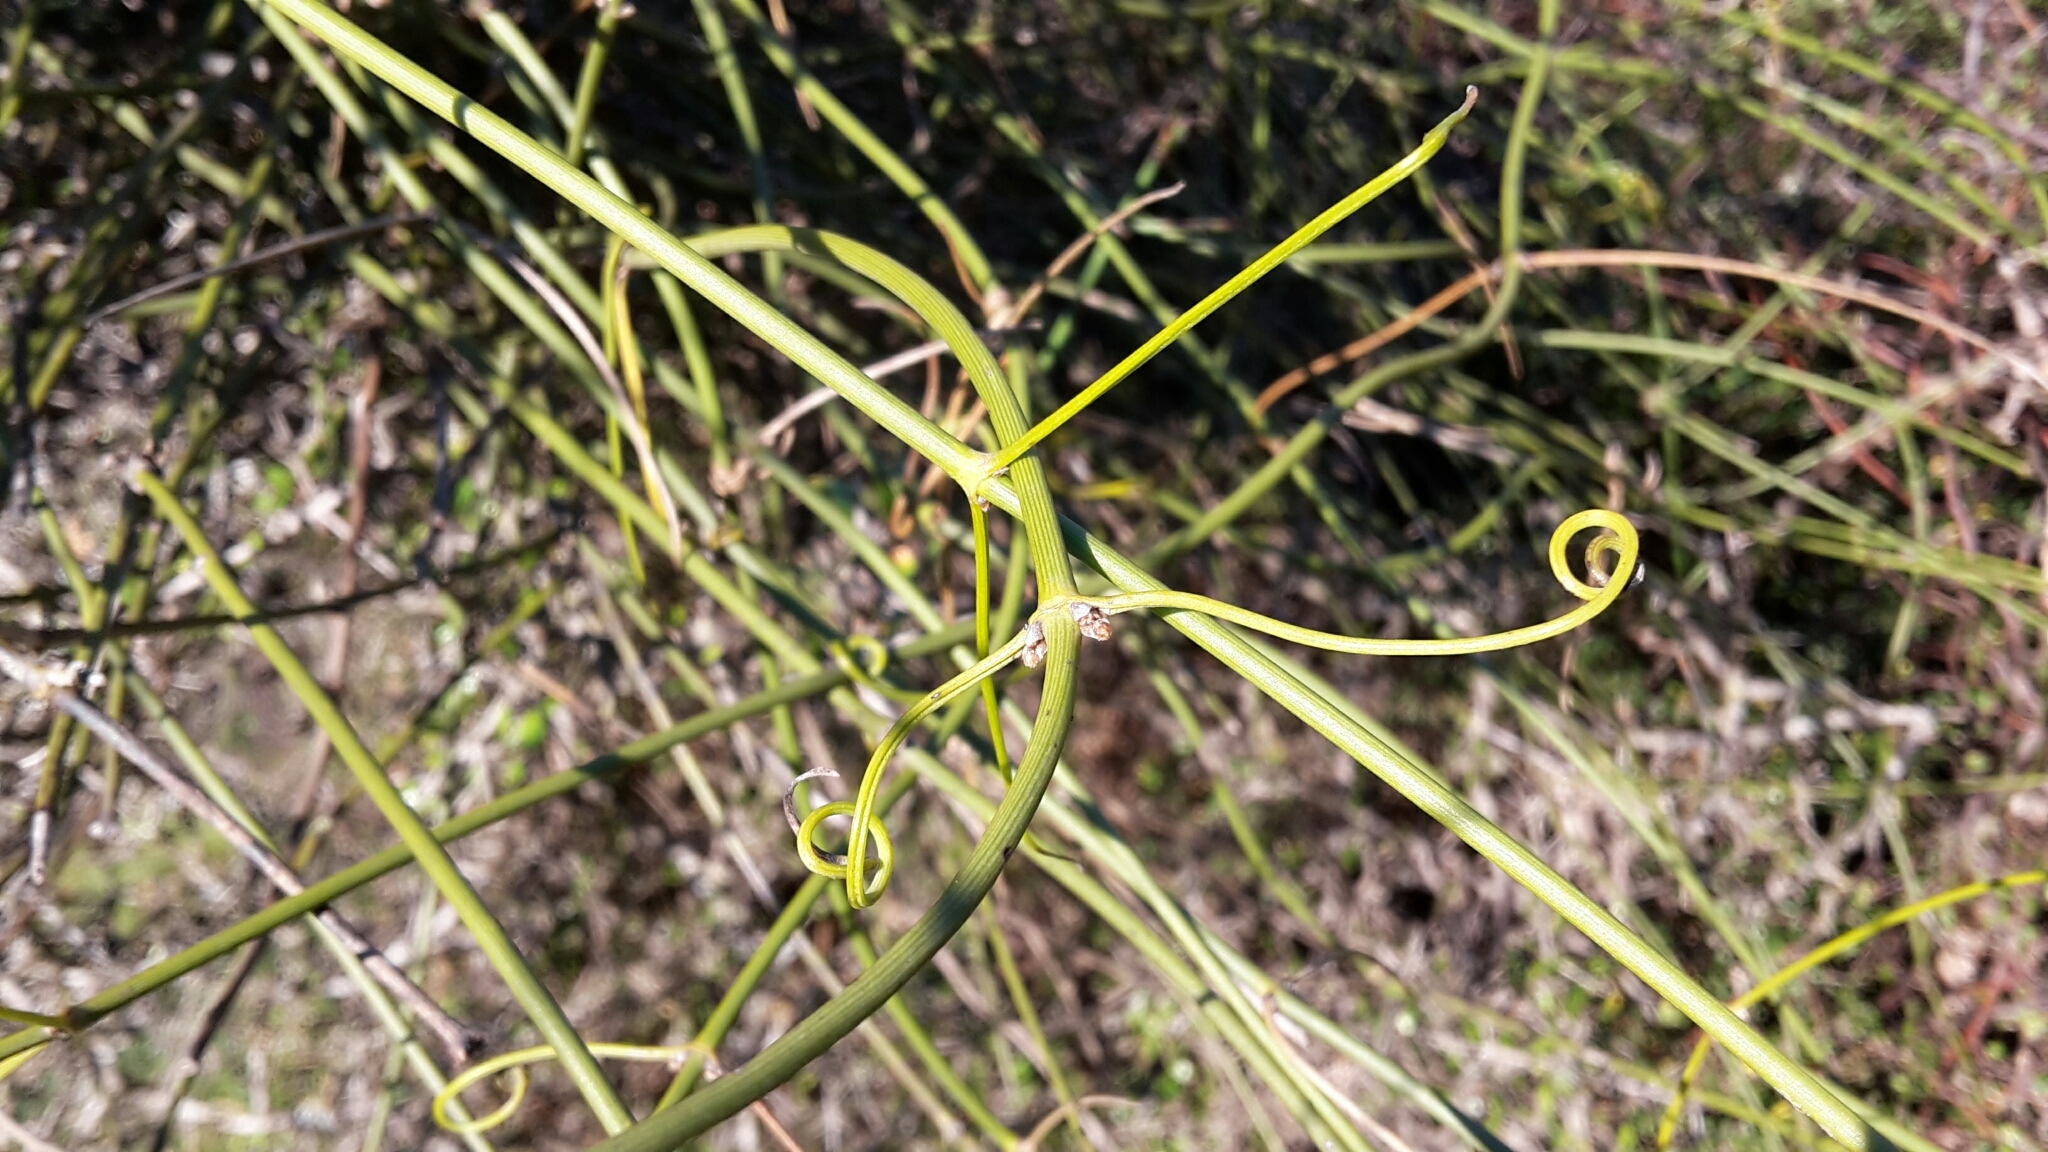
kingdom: Plantae
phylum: Tracheophyta
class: Magnoliopsida
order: Ranunculales
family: Ranunculaceae
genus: Clematis
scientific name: Clematis afoliata
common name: Rush-stem clematis
